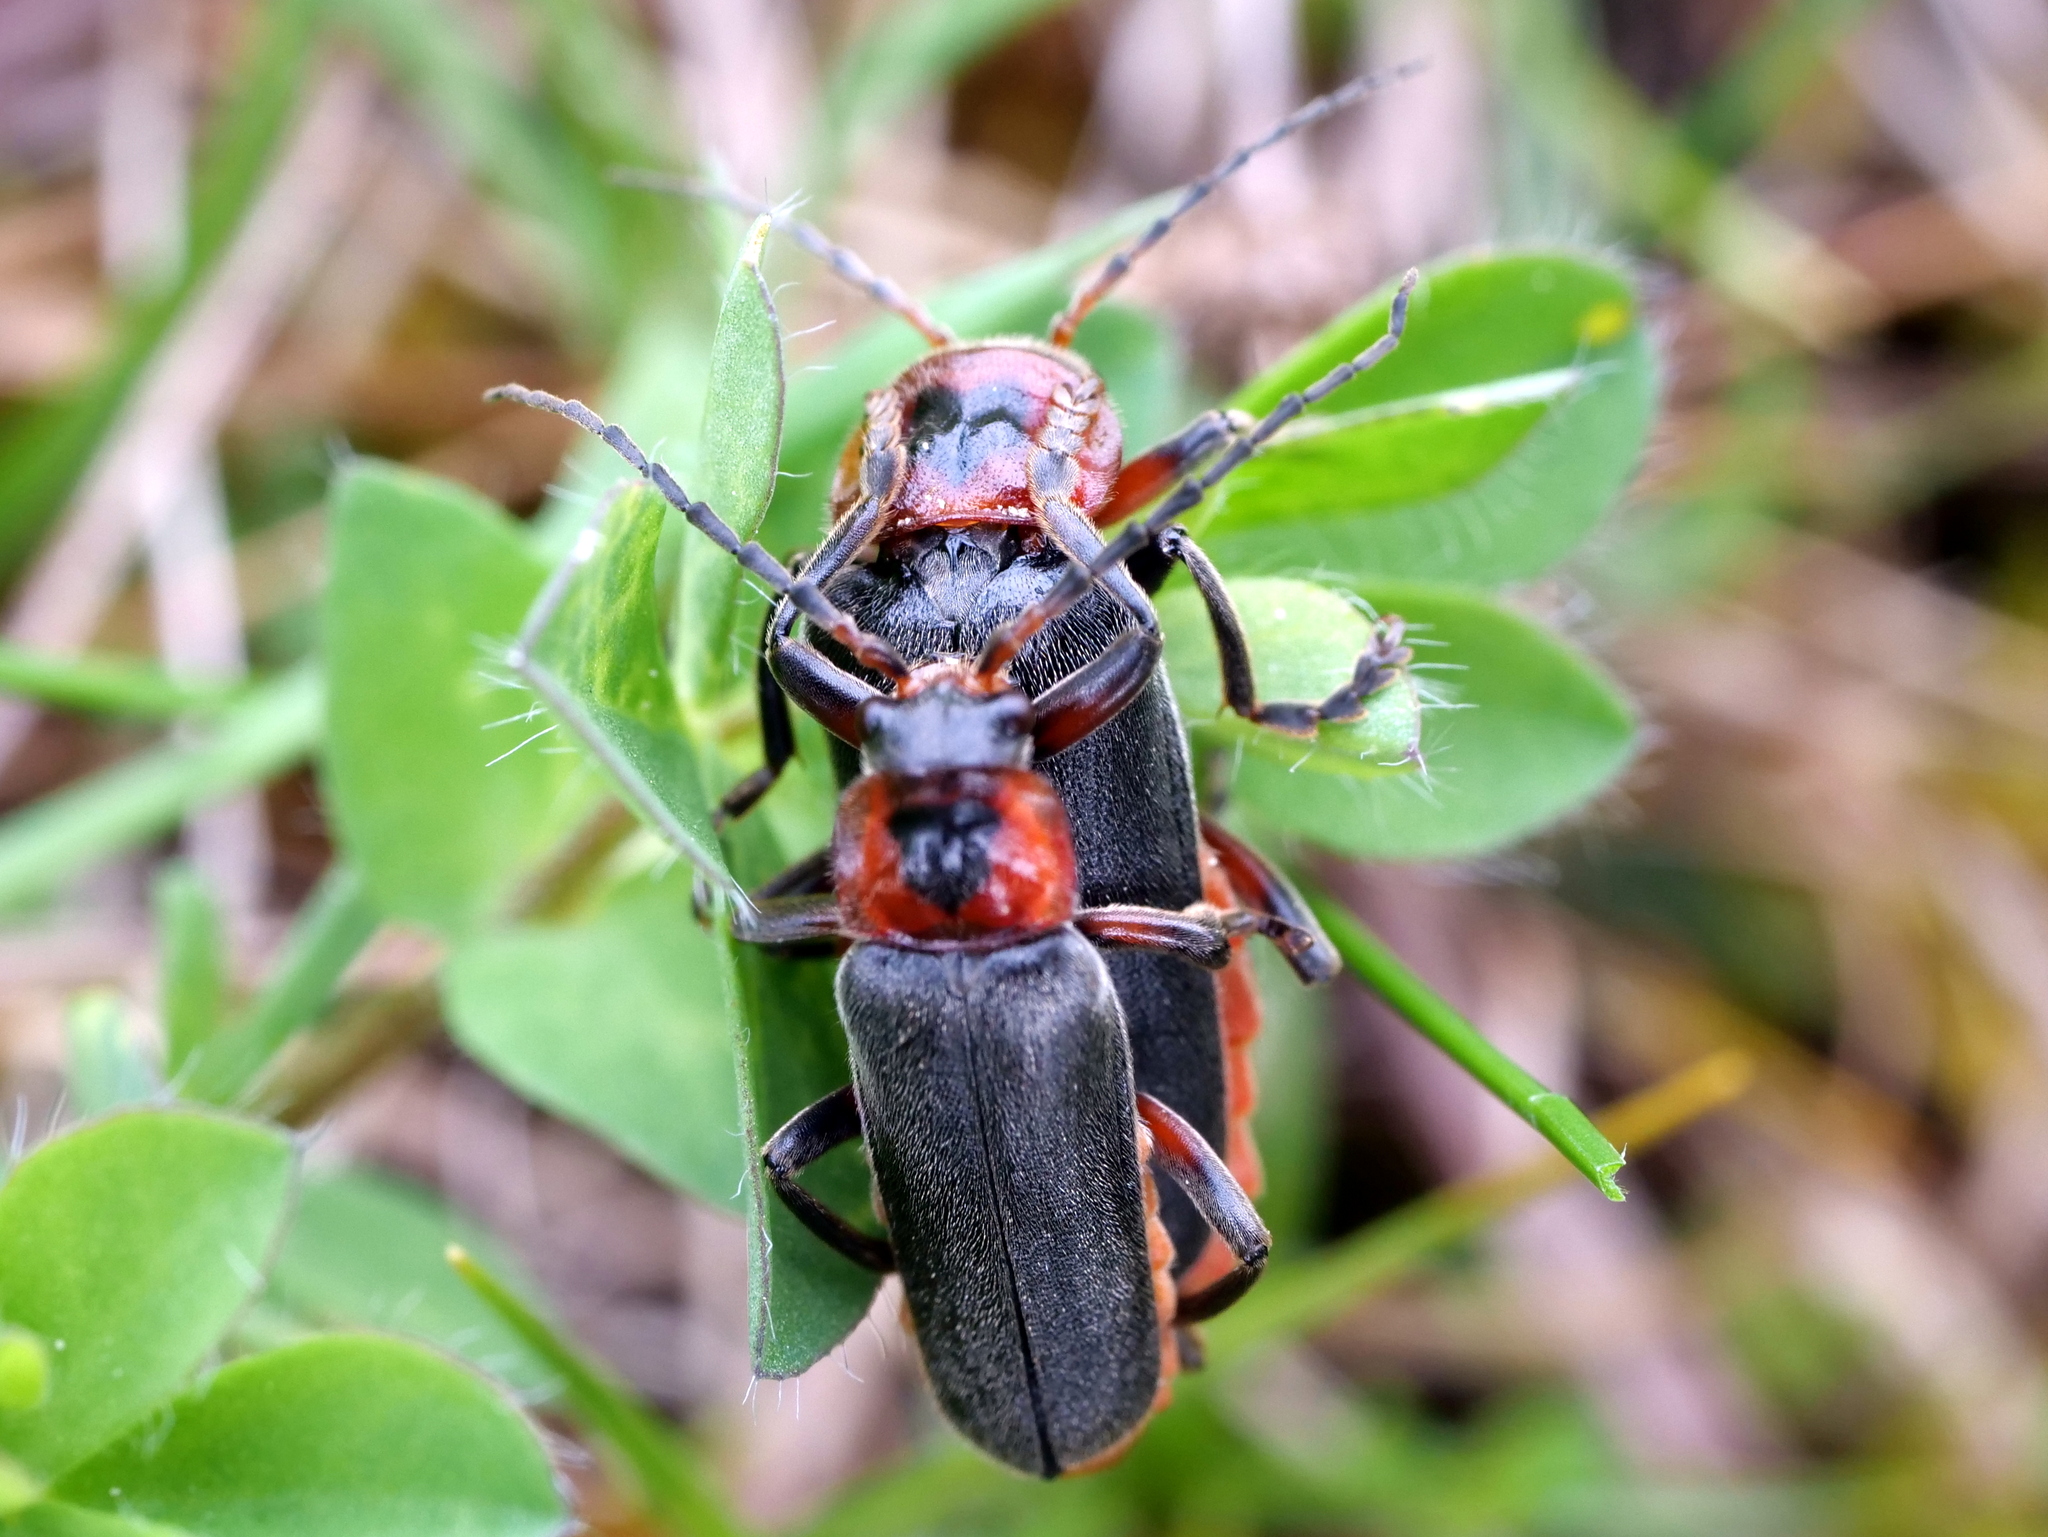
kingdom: Animalia
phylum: Arthropoda
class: Insecta
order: Coleoptera
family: Cantharidae
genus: Cantharis
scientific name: Cantharis rustica
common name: Soldier beetle
